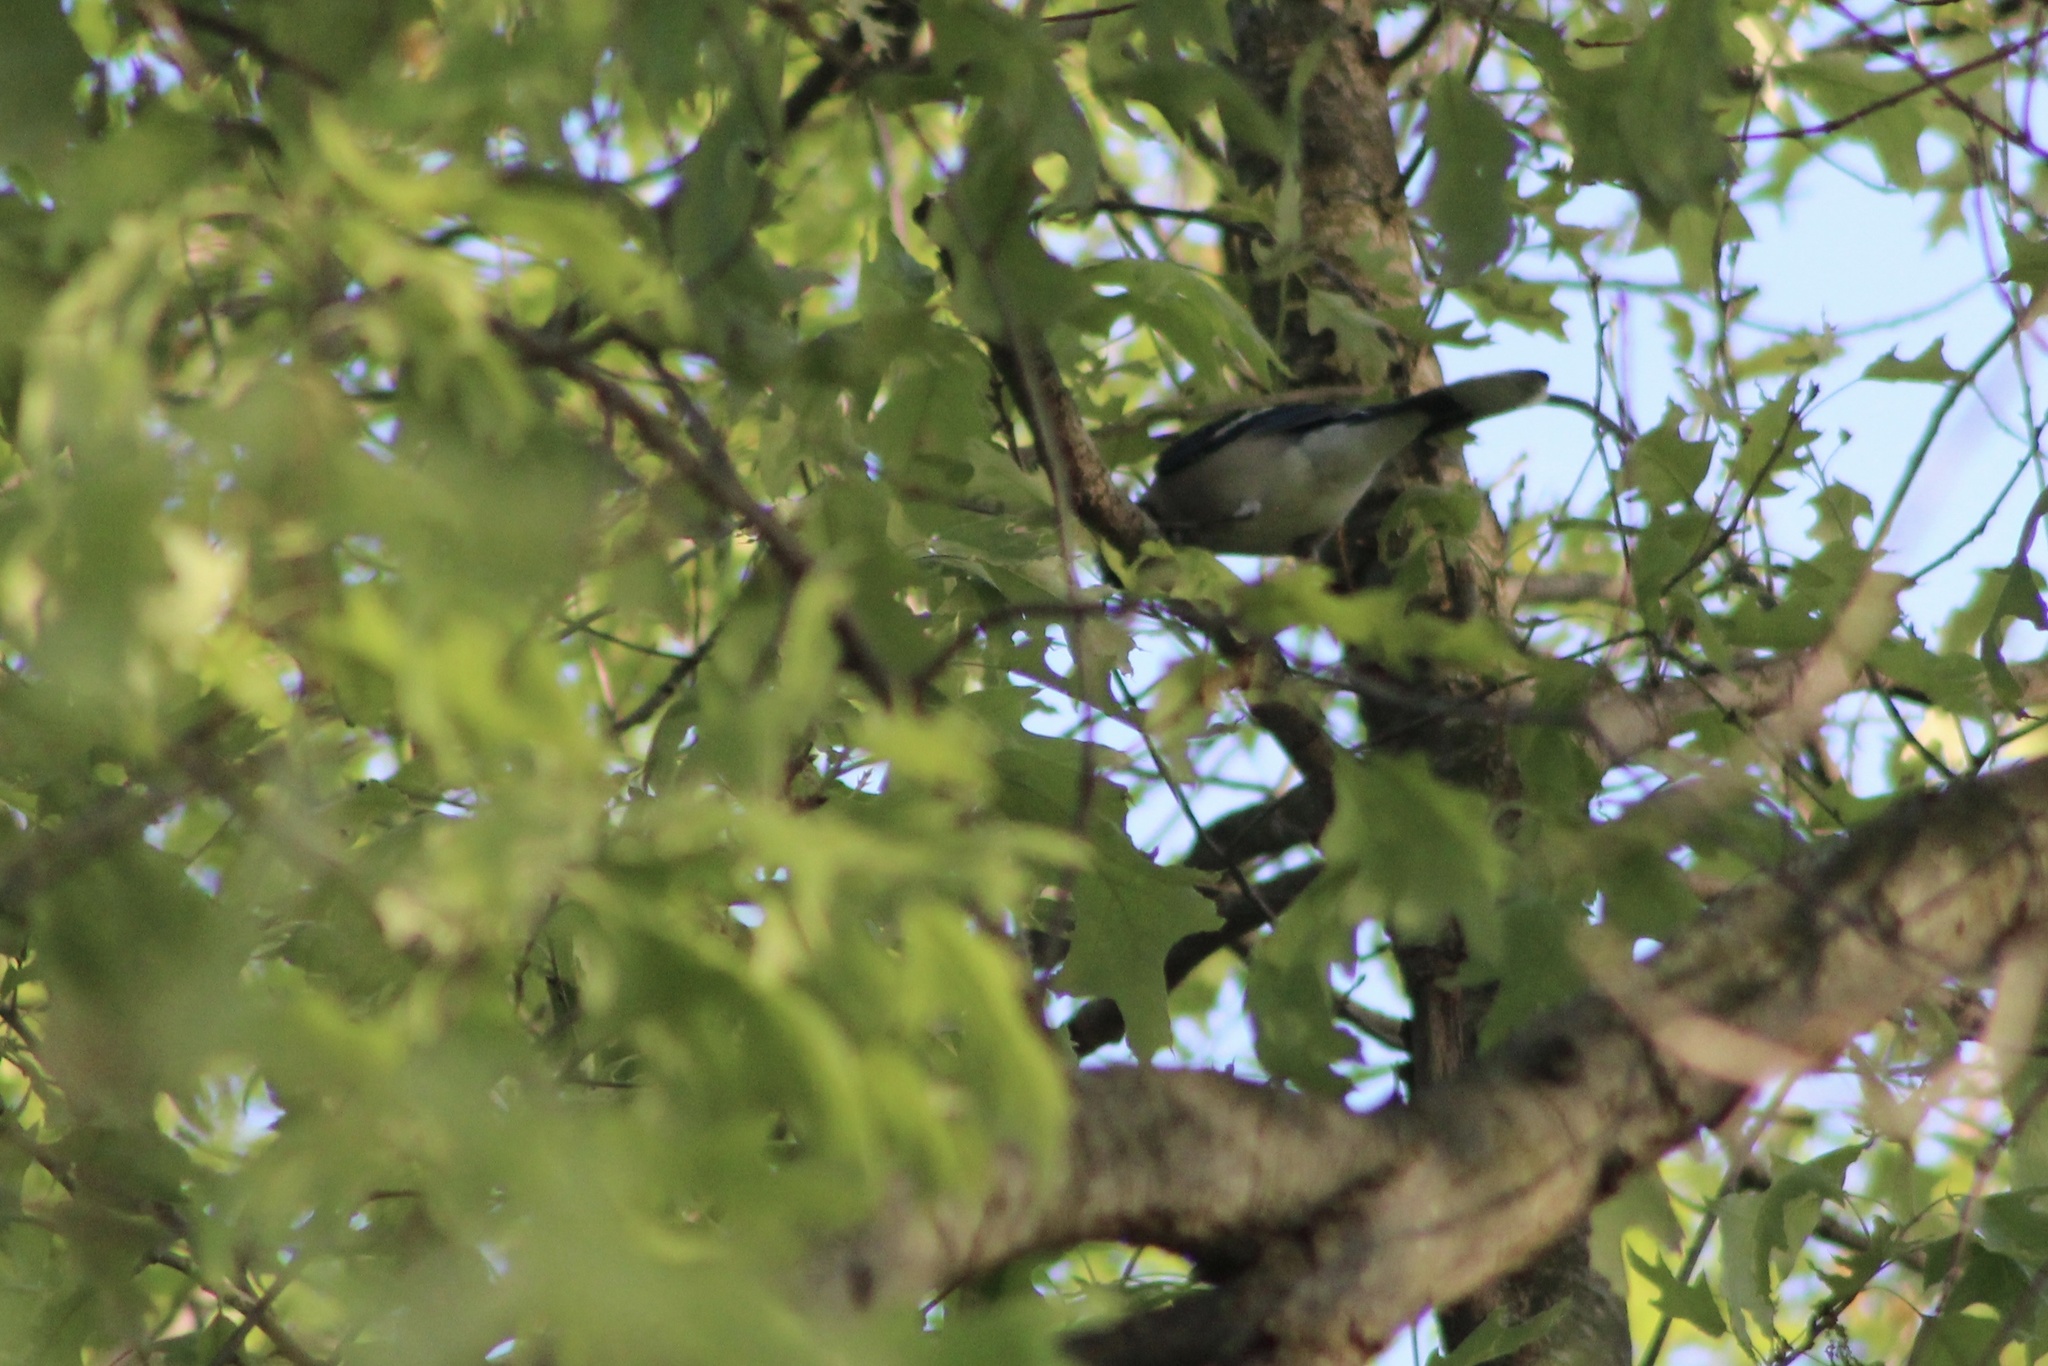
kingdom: Animalia
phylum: Chordata
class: Aves
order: Passeriformes
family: Corvidae
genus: Cyanocitta
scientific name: Cyanocitta cristata
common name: Blue jay
